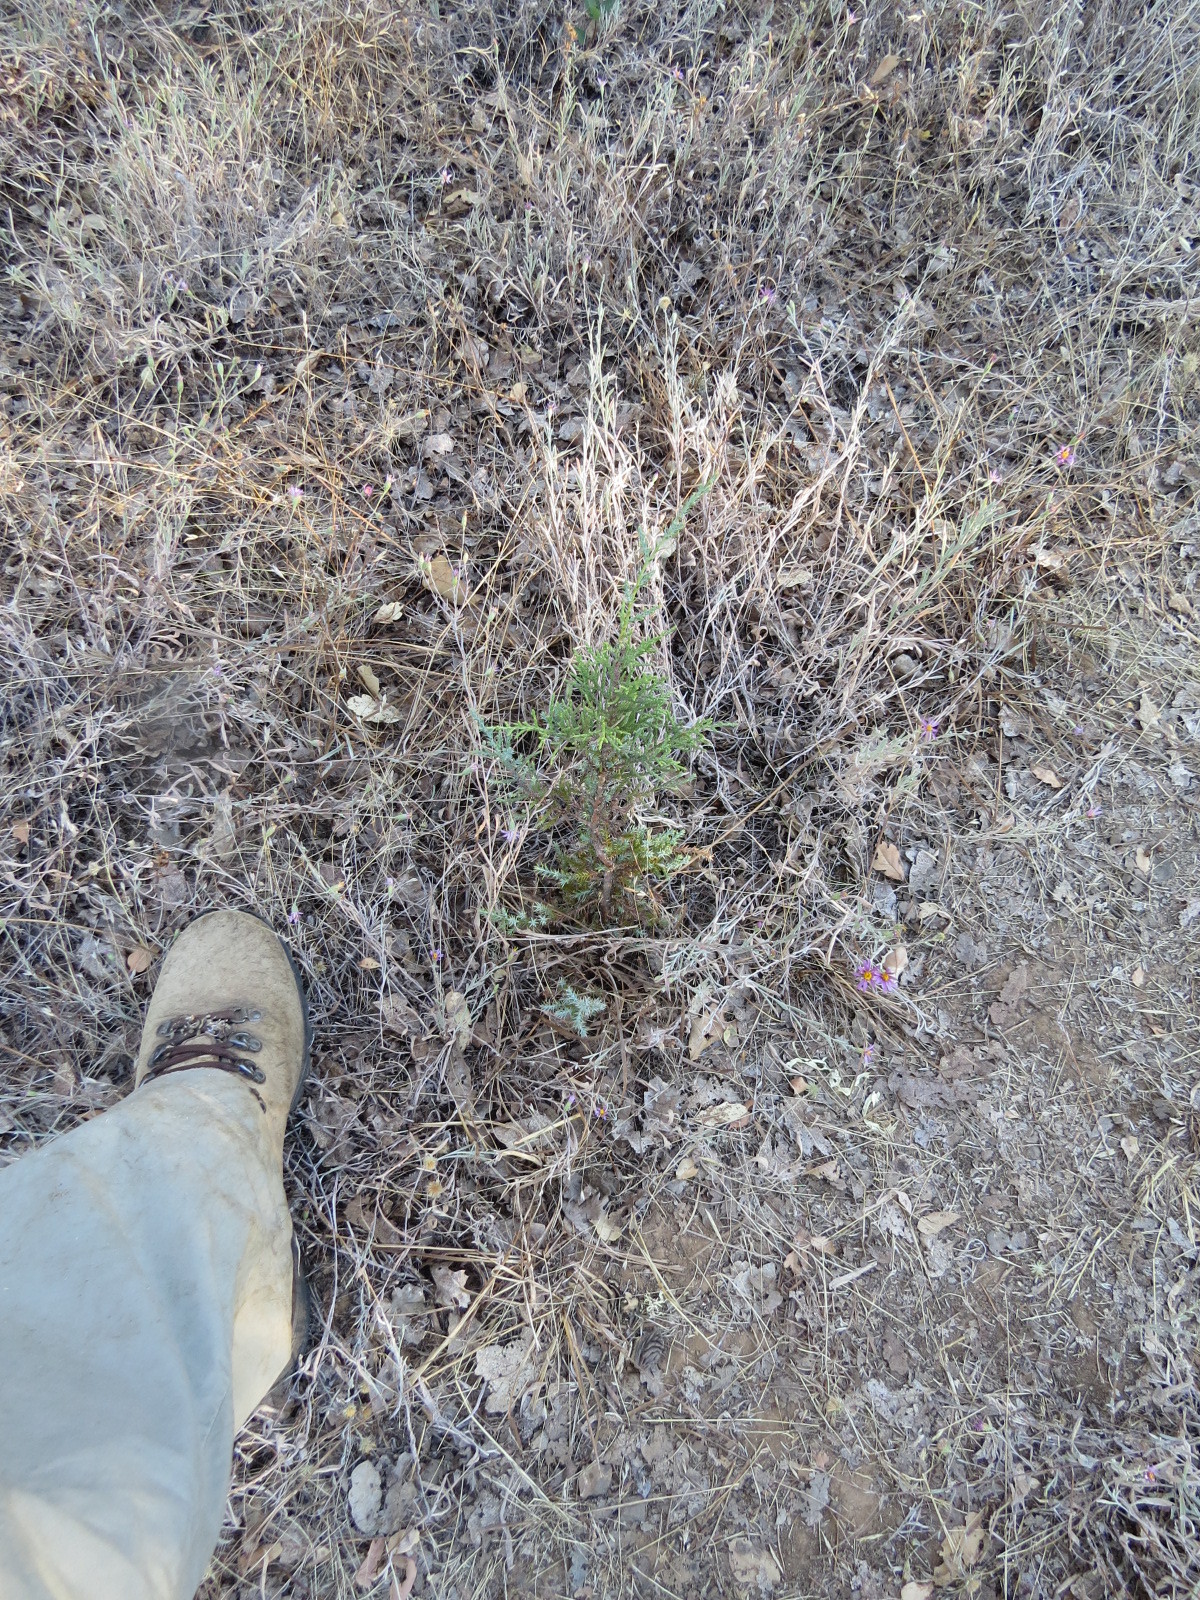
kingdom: Plantae
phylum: Tracheophyta
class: Pinopsida
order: Pinales
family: Cupressaceae
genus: Juniperus
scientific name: Juniperus californica
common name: California juniper
